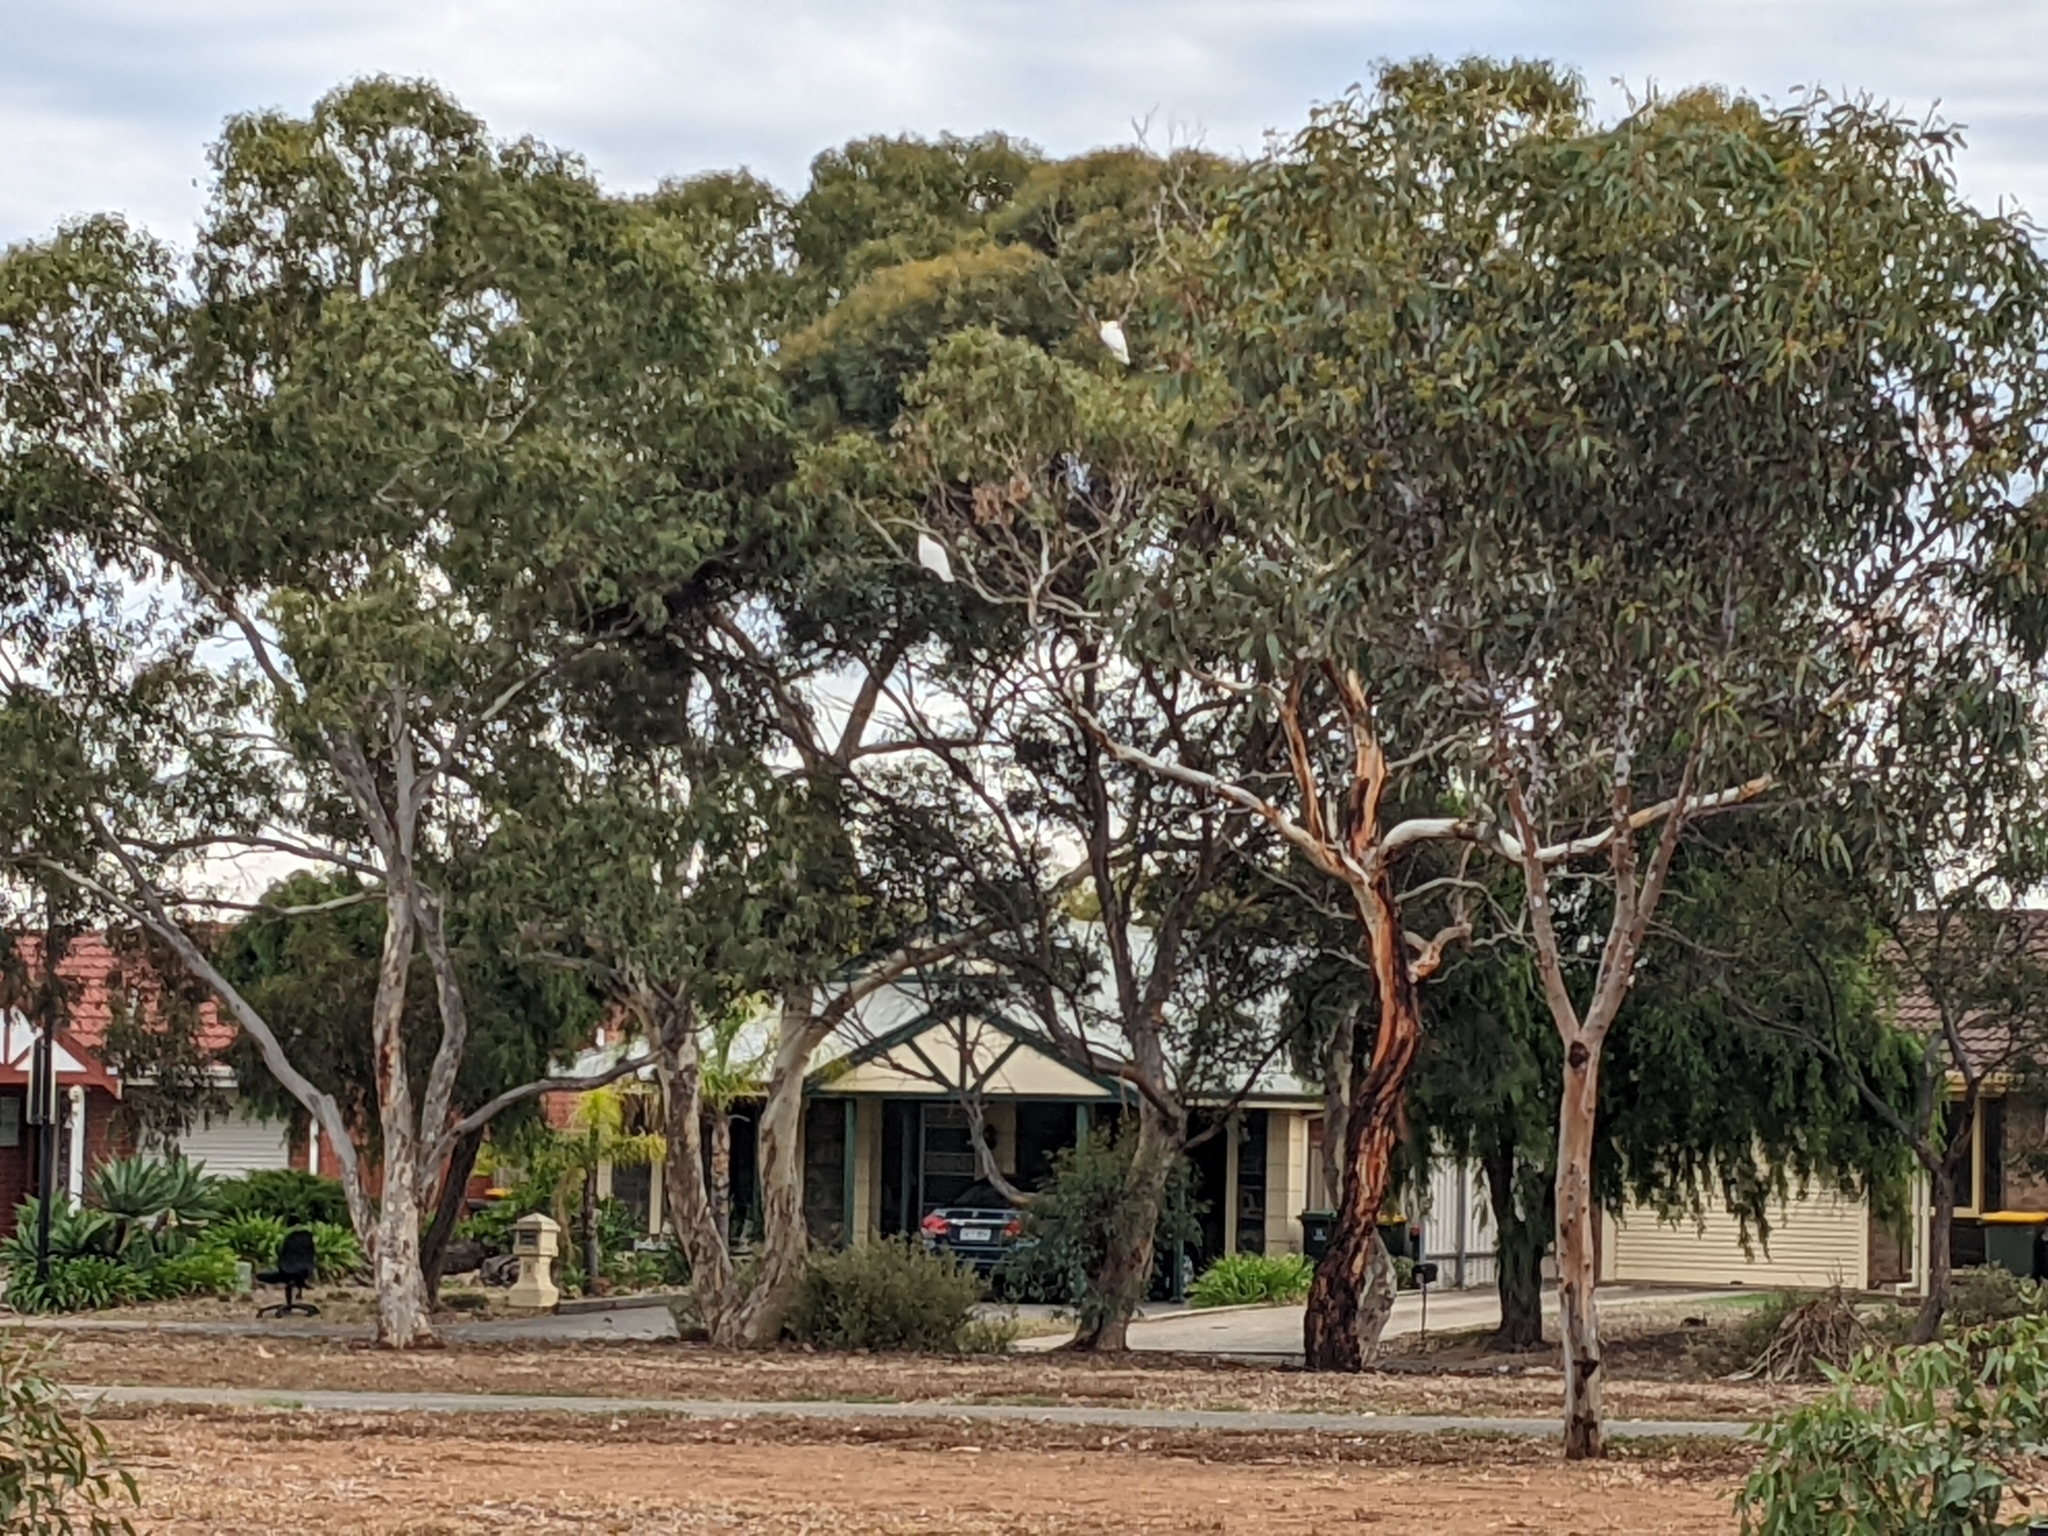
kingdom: Animalia
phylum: Chordata
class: Aves
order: Psittaciformes
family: Psittacidae
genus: Cacatua
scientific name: Cacatua galerita
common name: Sulphur-crested cockatoo
